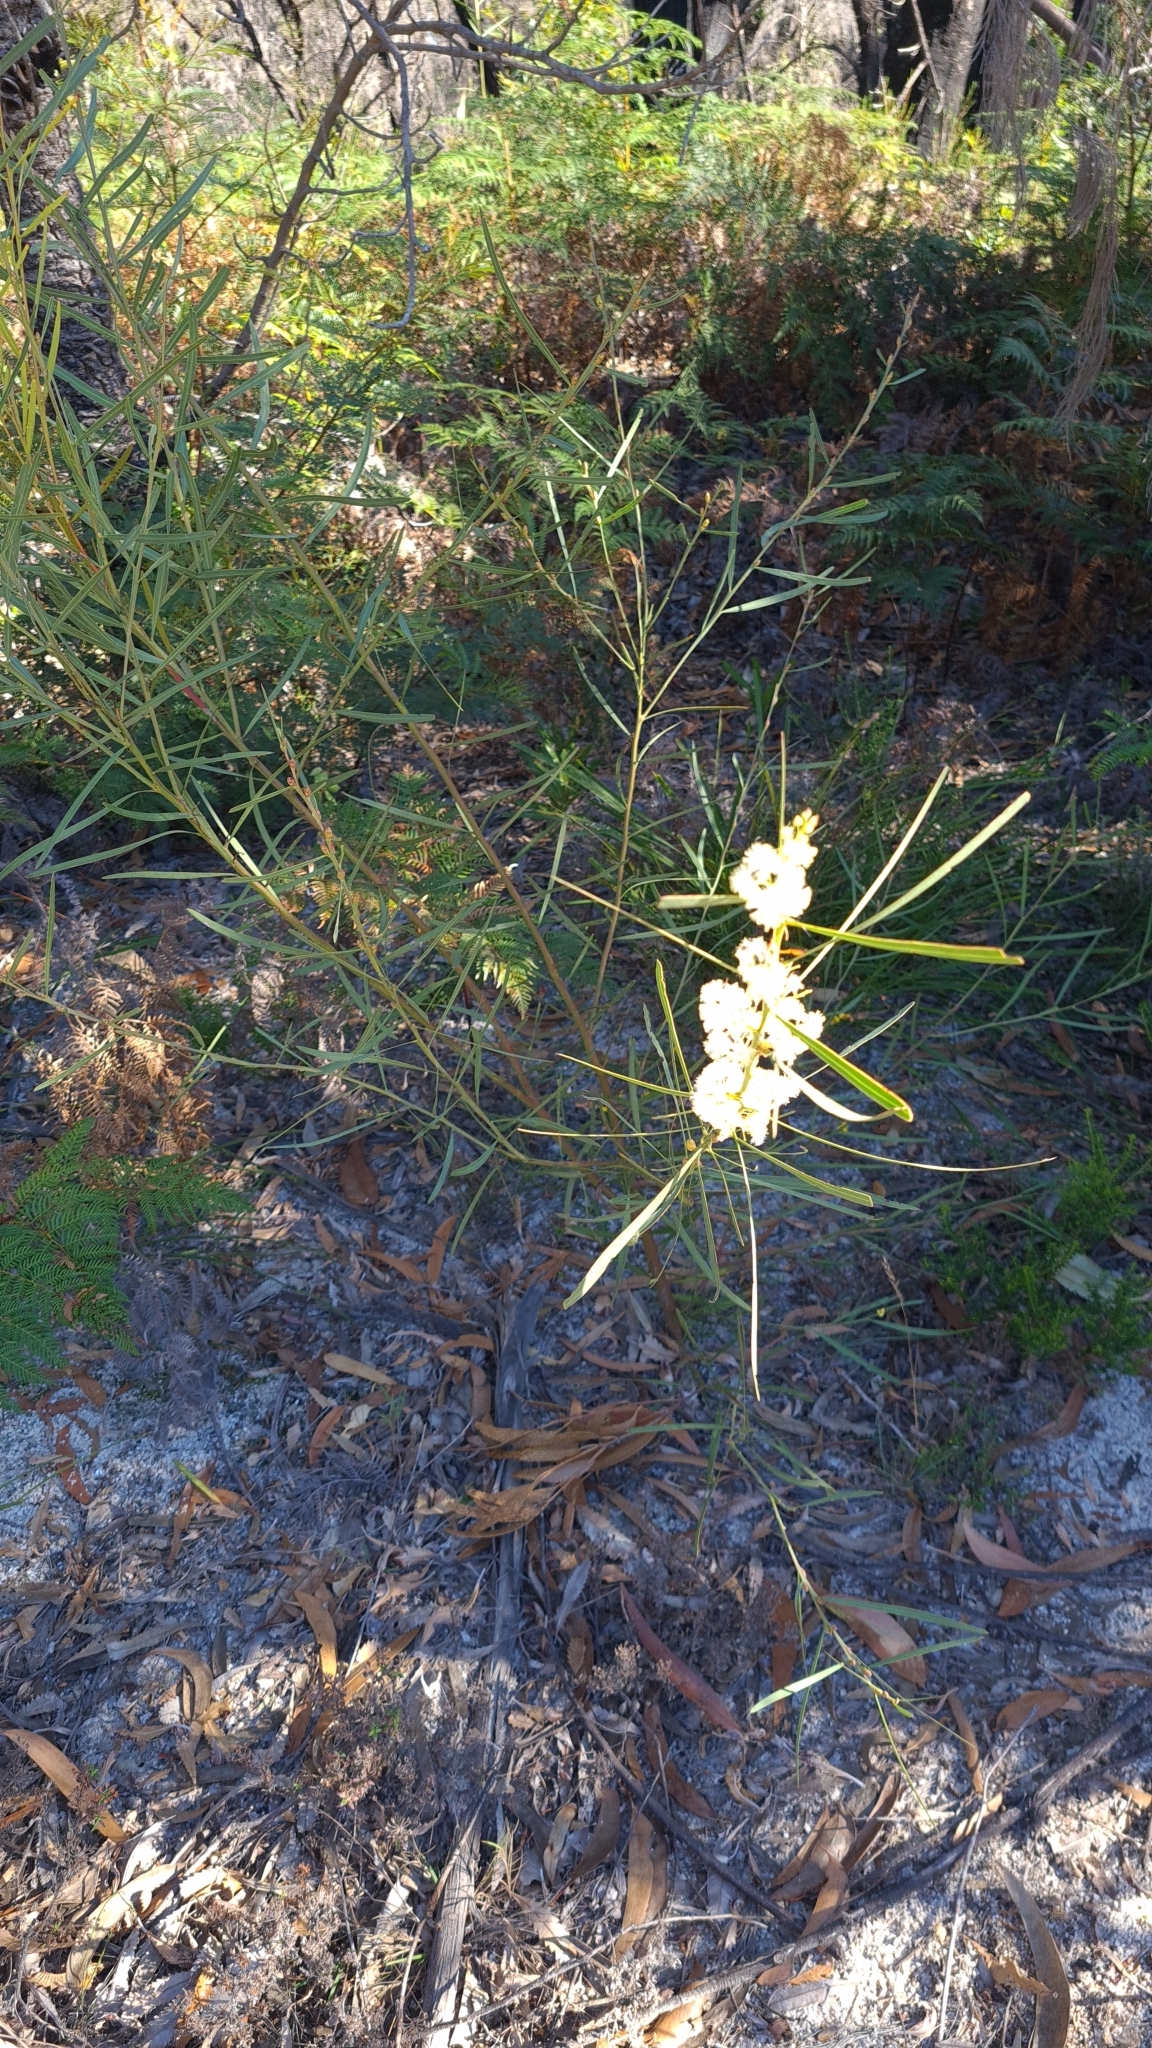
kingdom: Plantae
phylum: Tracheophyta
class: Magnoliopsida
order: Fabales
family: Fabaceae
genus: Acacia
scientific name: Acacia suaveolens
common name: Sweet acacia
